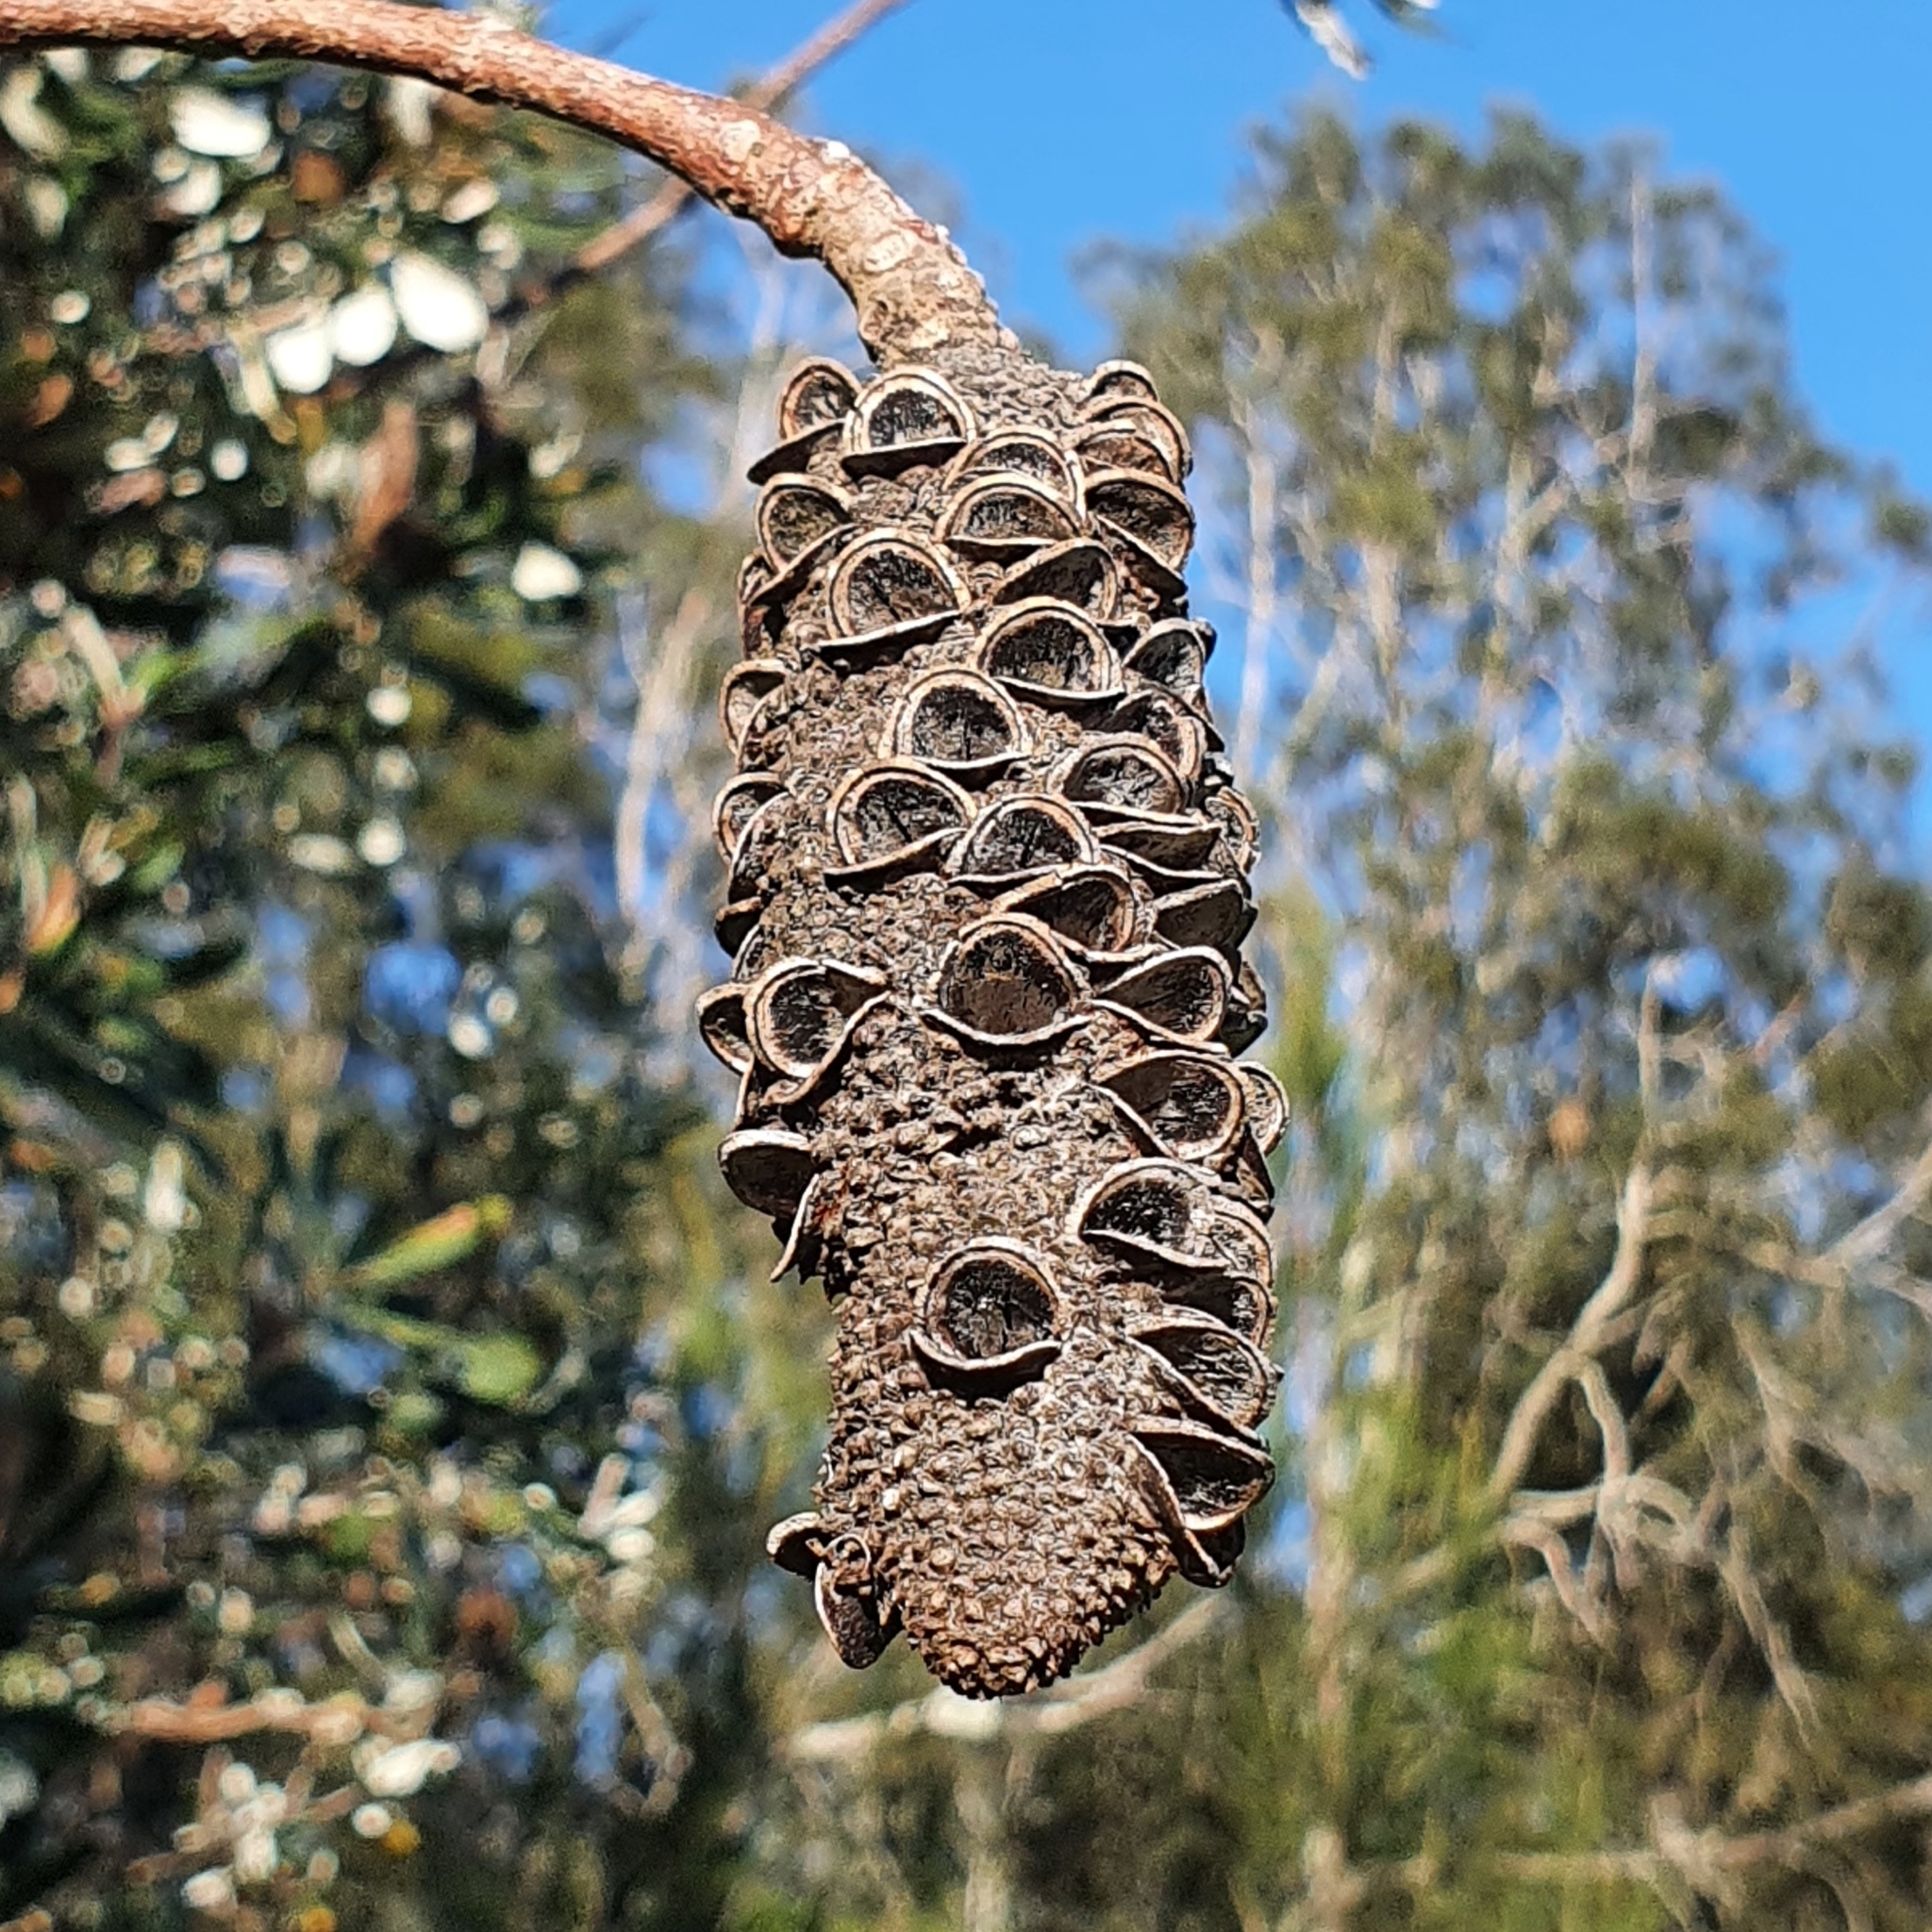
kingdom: Plantae
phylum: Tracheophyta
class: Magnoliopsida
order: Proteales
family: Proteaceae
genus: Banksia
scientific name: Banksia integrifolia
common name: White-honeysuckle
